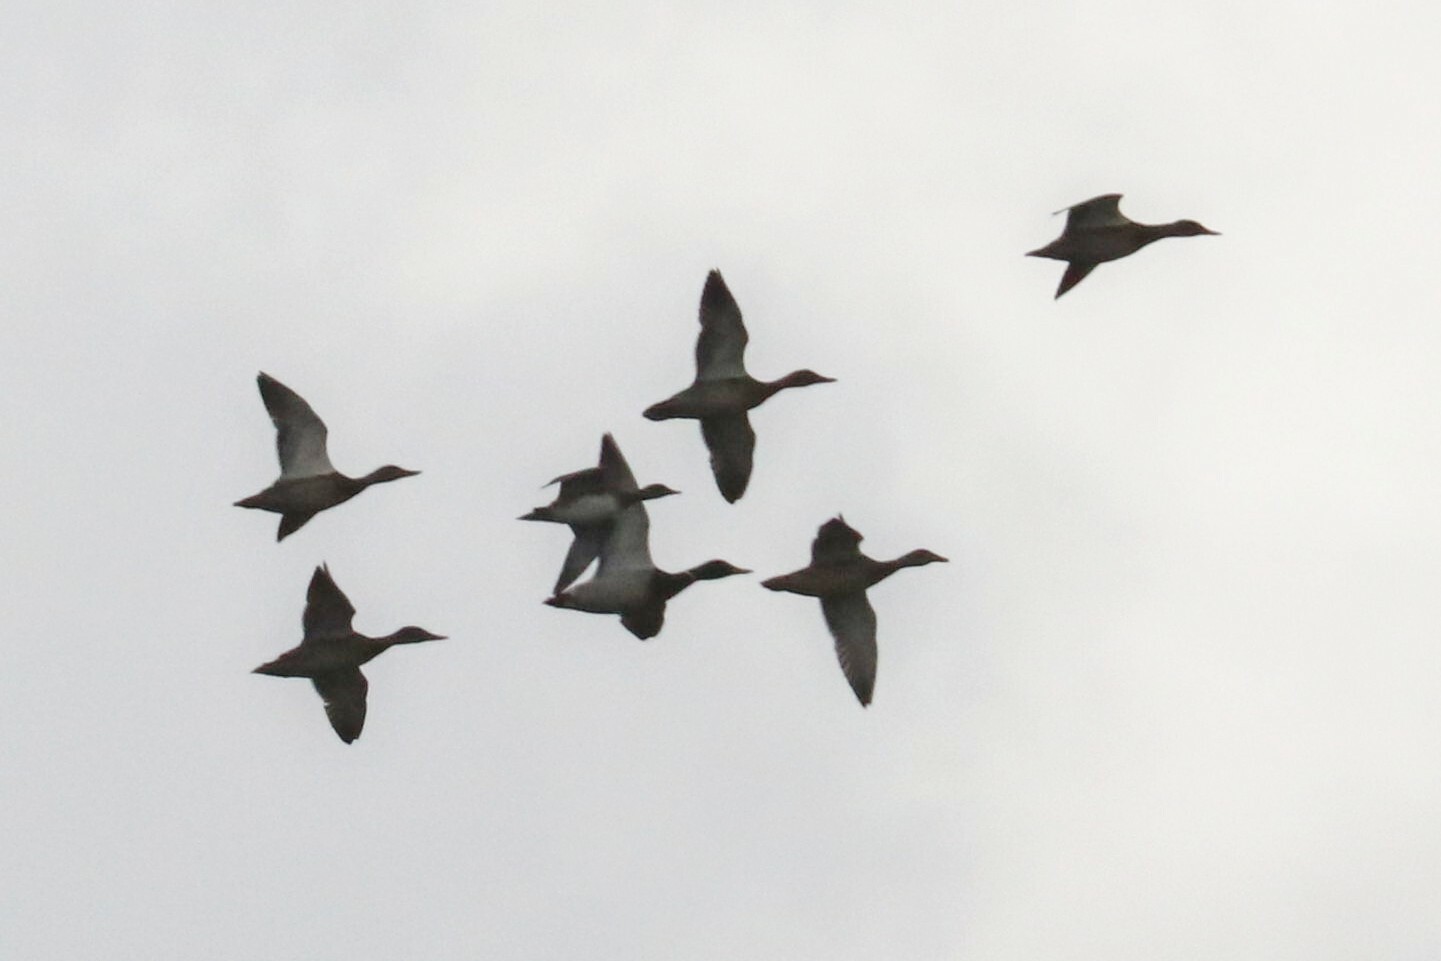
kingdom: Animalia
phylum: Chordata
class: Aves
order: Anseriformes
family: Anatidae
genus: Anas
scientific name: Anas platyrhynchos
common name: Mallard
